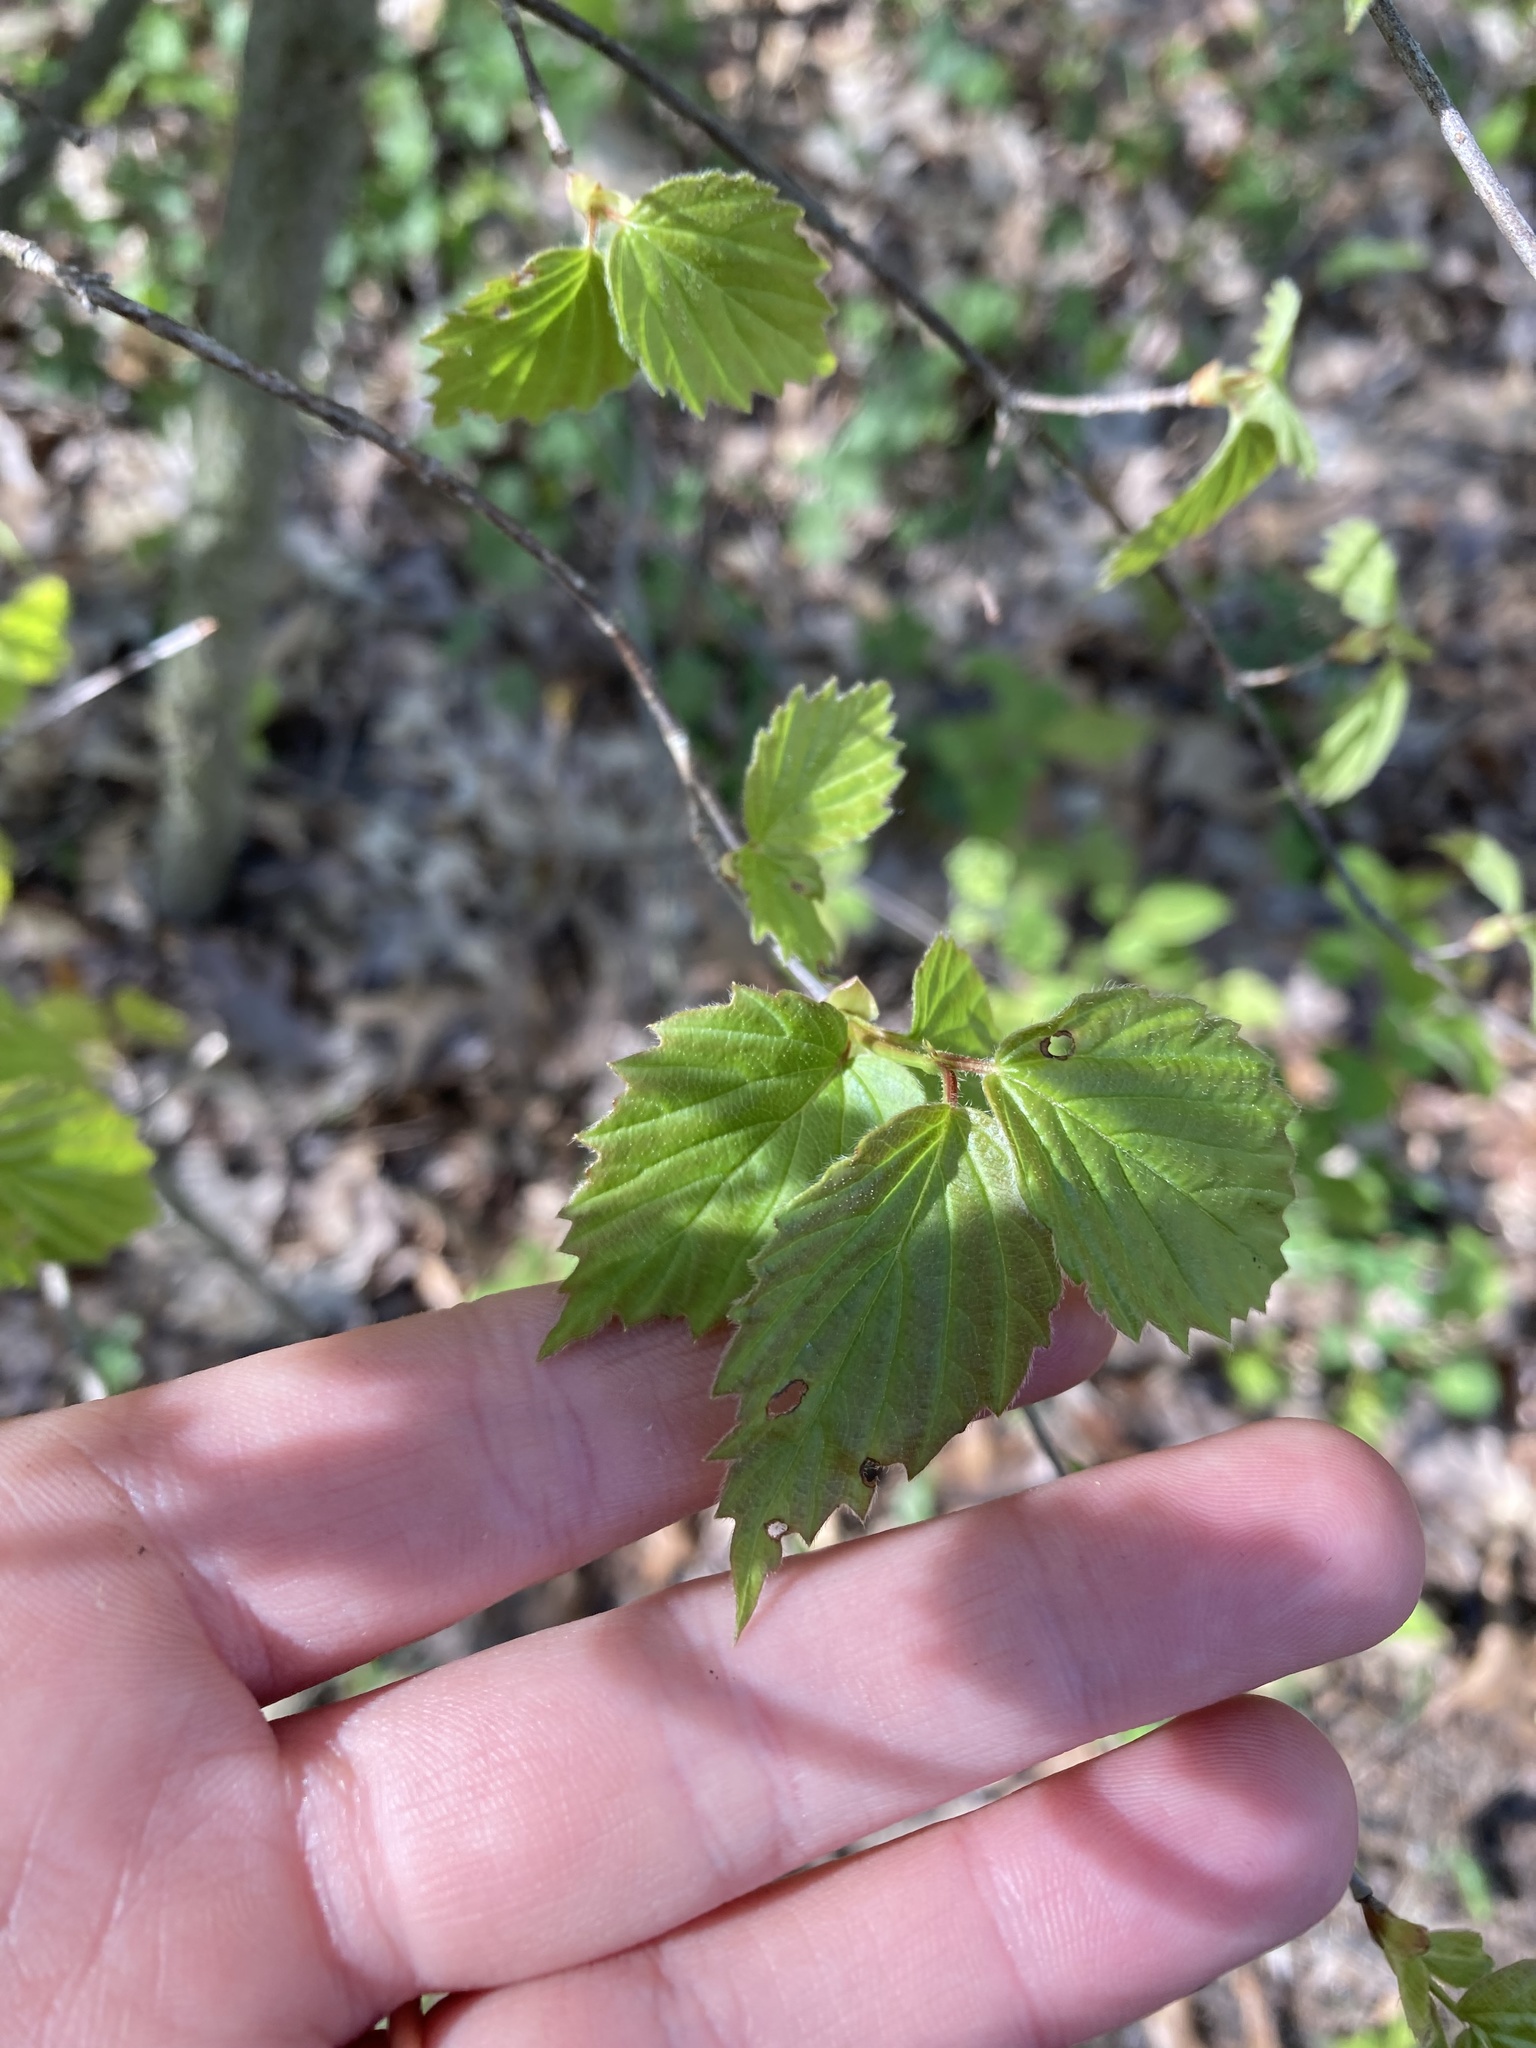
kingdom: Plantae
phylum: Tracheophyta
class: Magnoliopsida
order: Dipsacales
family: Viburnaceae
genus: Viburnum
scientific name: Viburnum rafinesqueanum
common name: Downy arrow-wood
